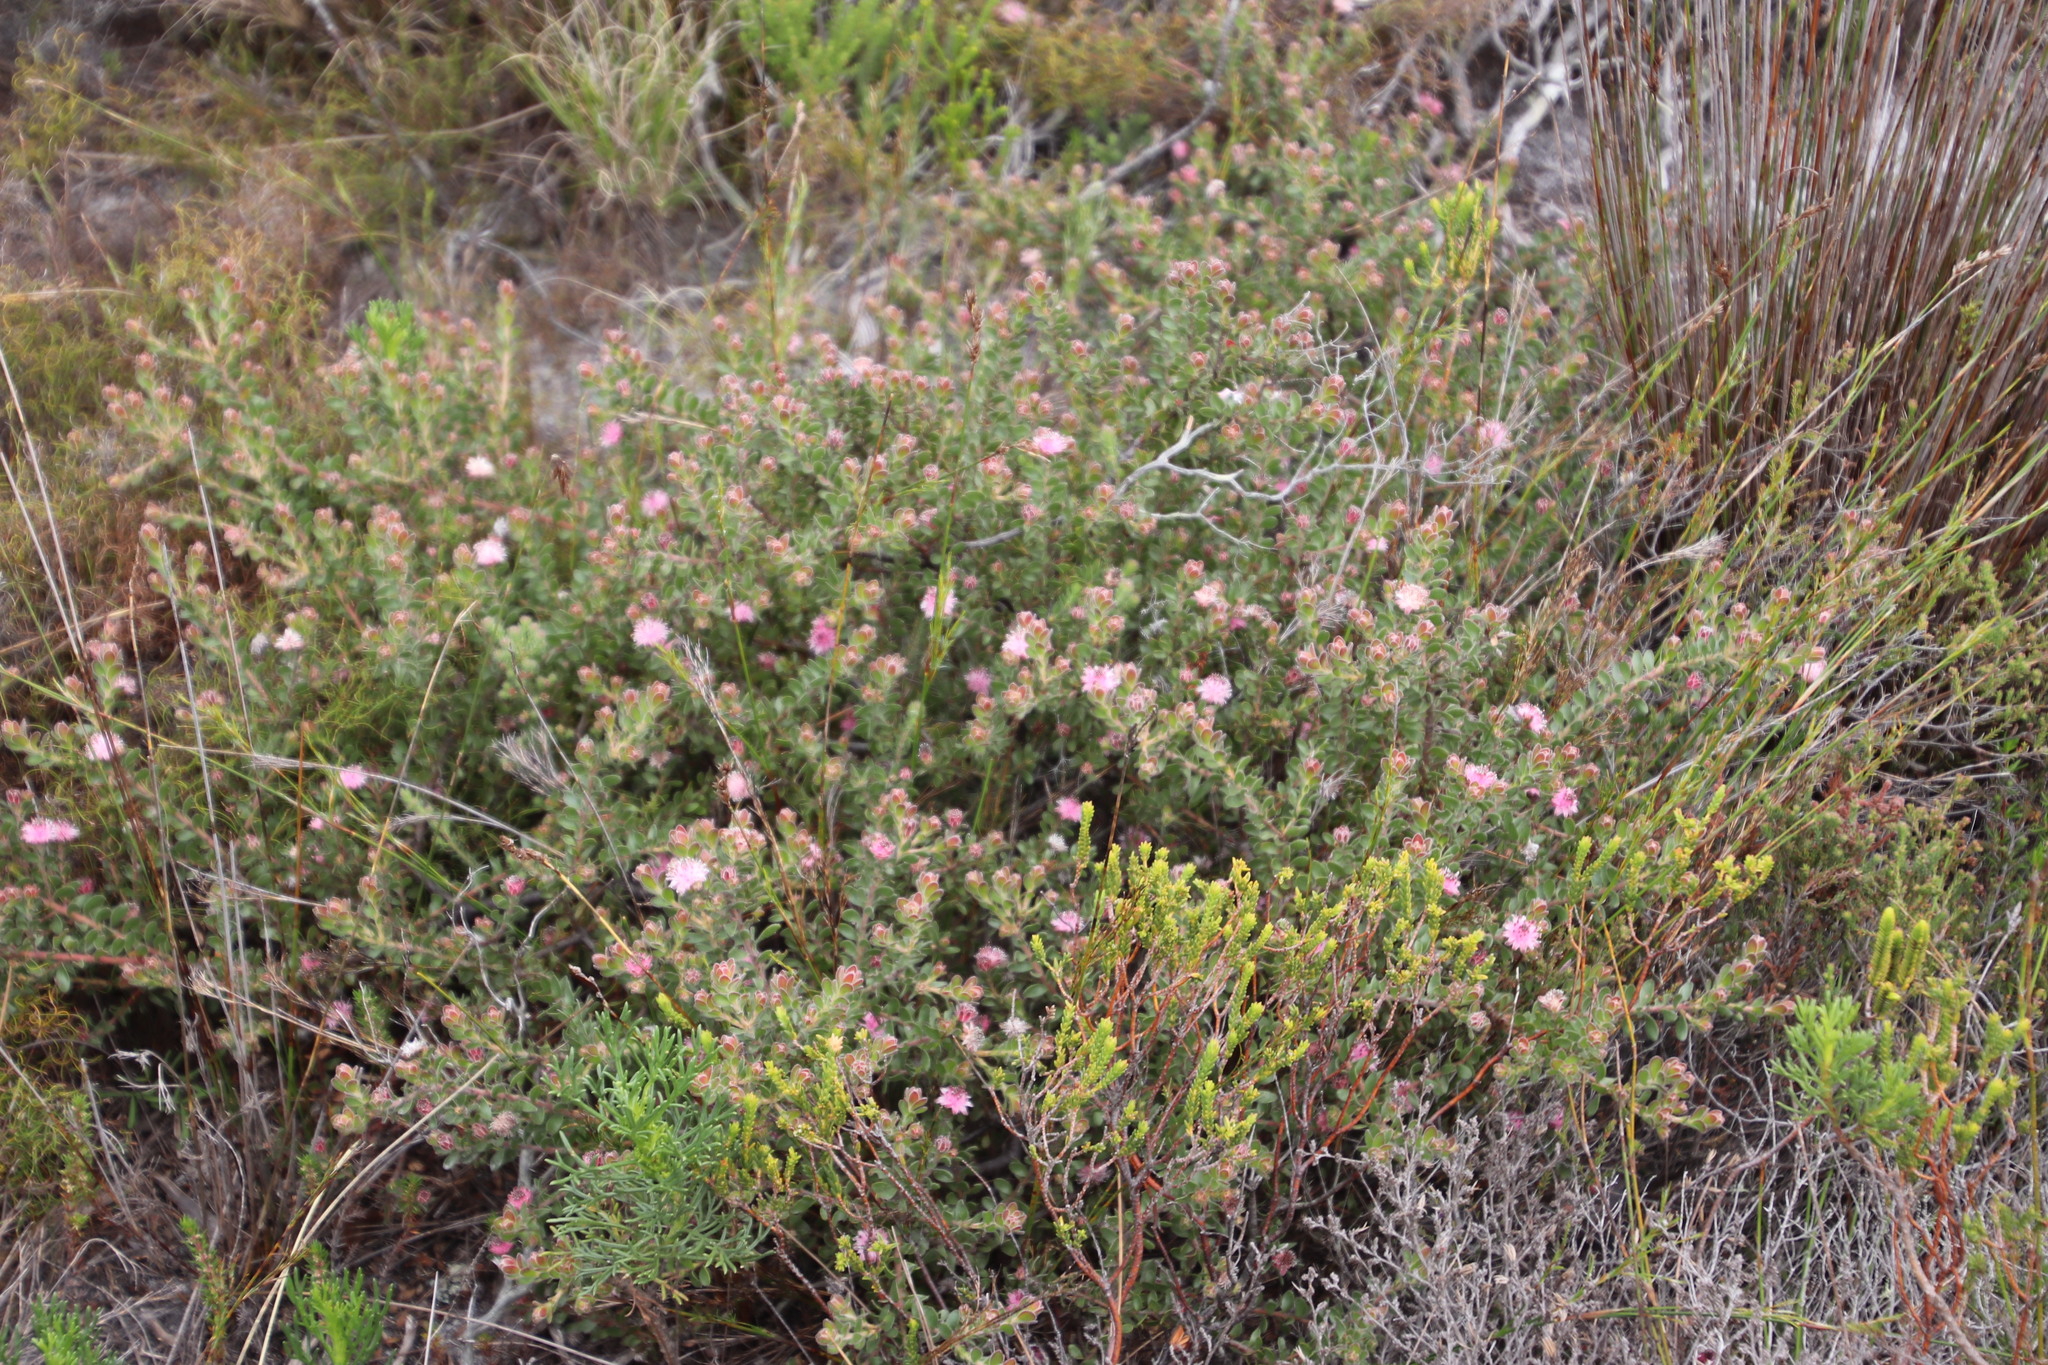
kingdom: Plantae
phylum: Tracheophyta
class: Magnoliopsida
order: Proteales
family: Proteaceae
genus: Diastella
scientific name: Diastella divaricata
